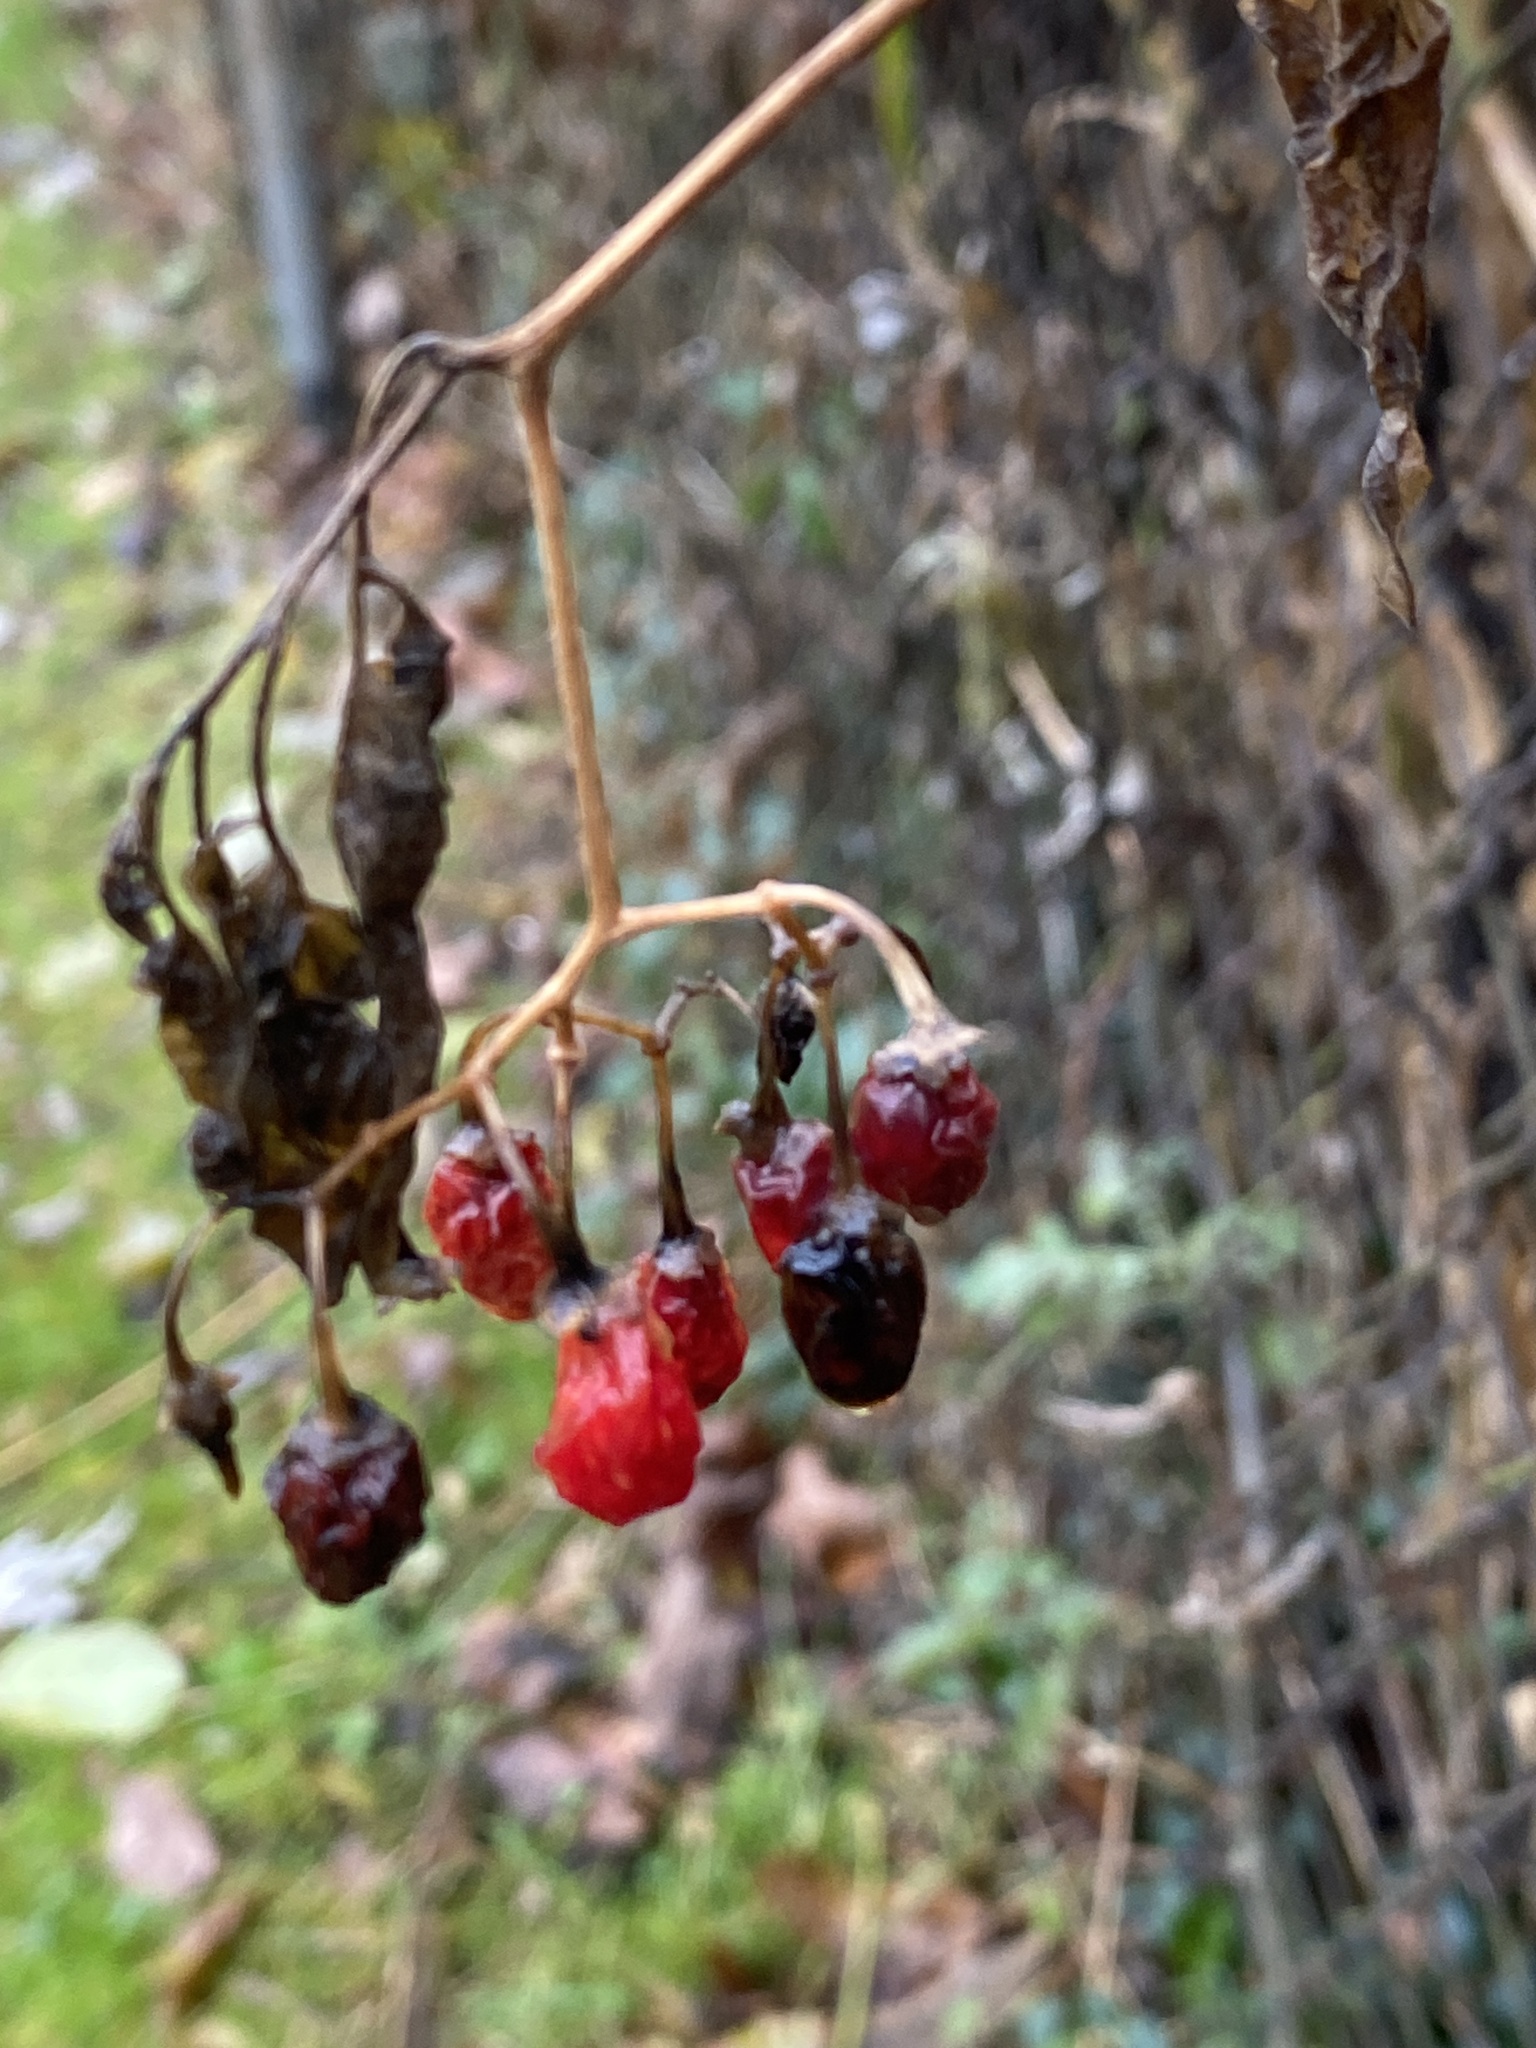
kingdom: Plantae
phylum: Tracheophyta
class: Magnoliopsida
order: Solanales
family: Solanaceae
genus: Solanum
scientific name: Solanum dulcamara
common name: Climbing nightshade
